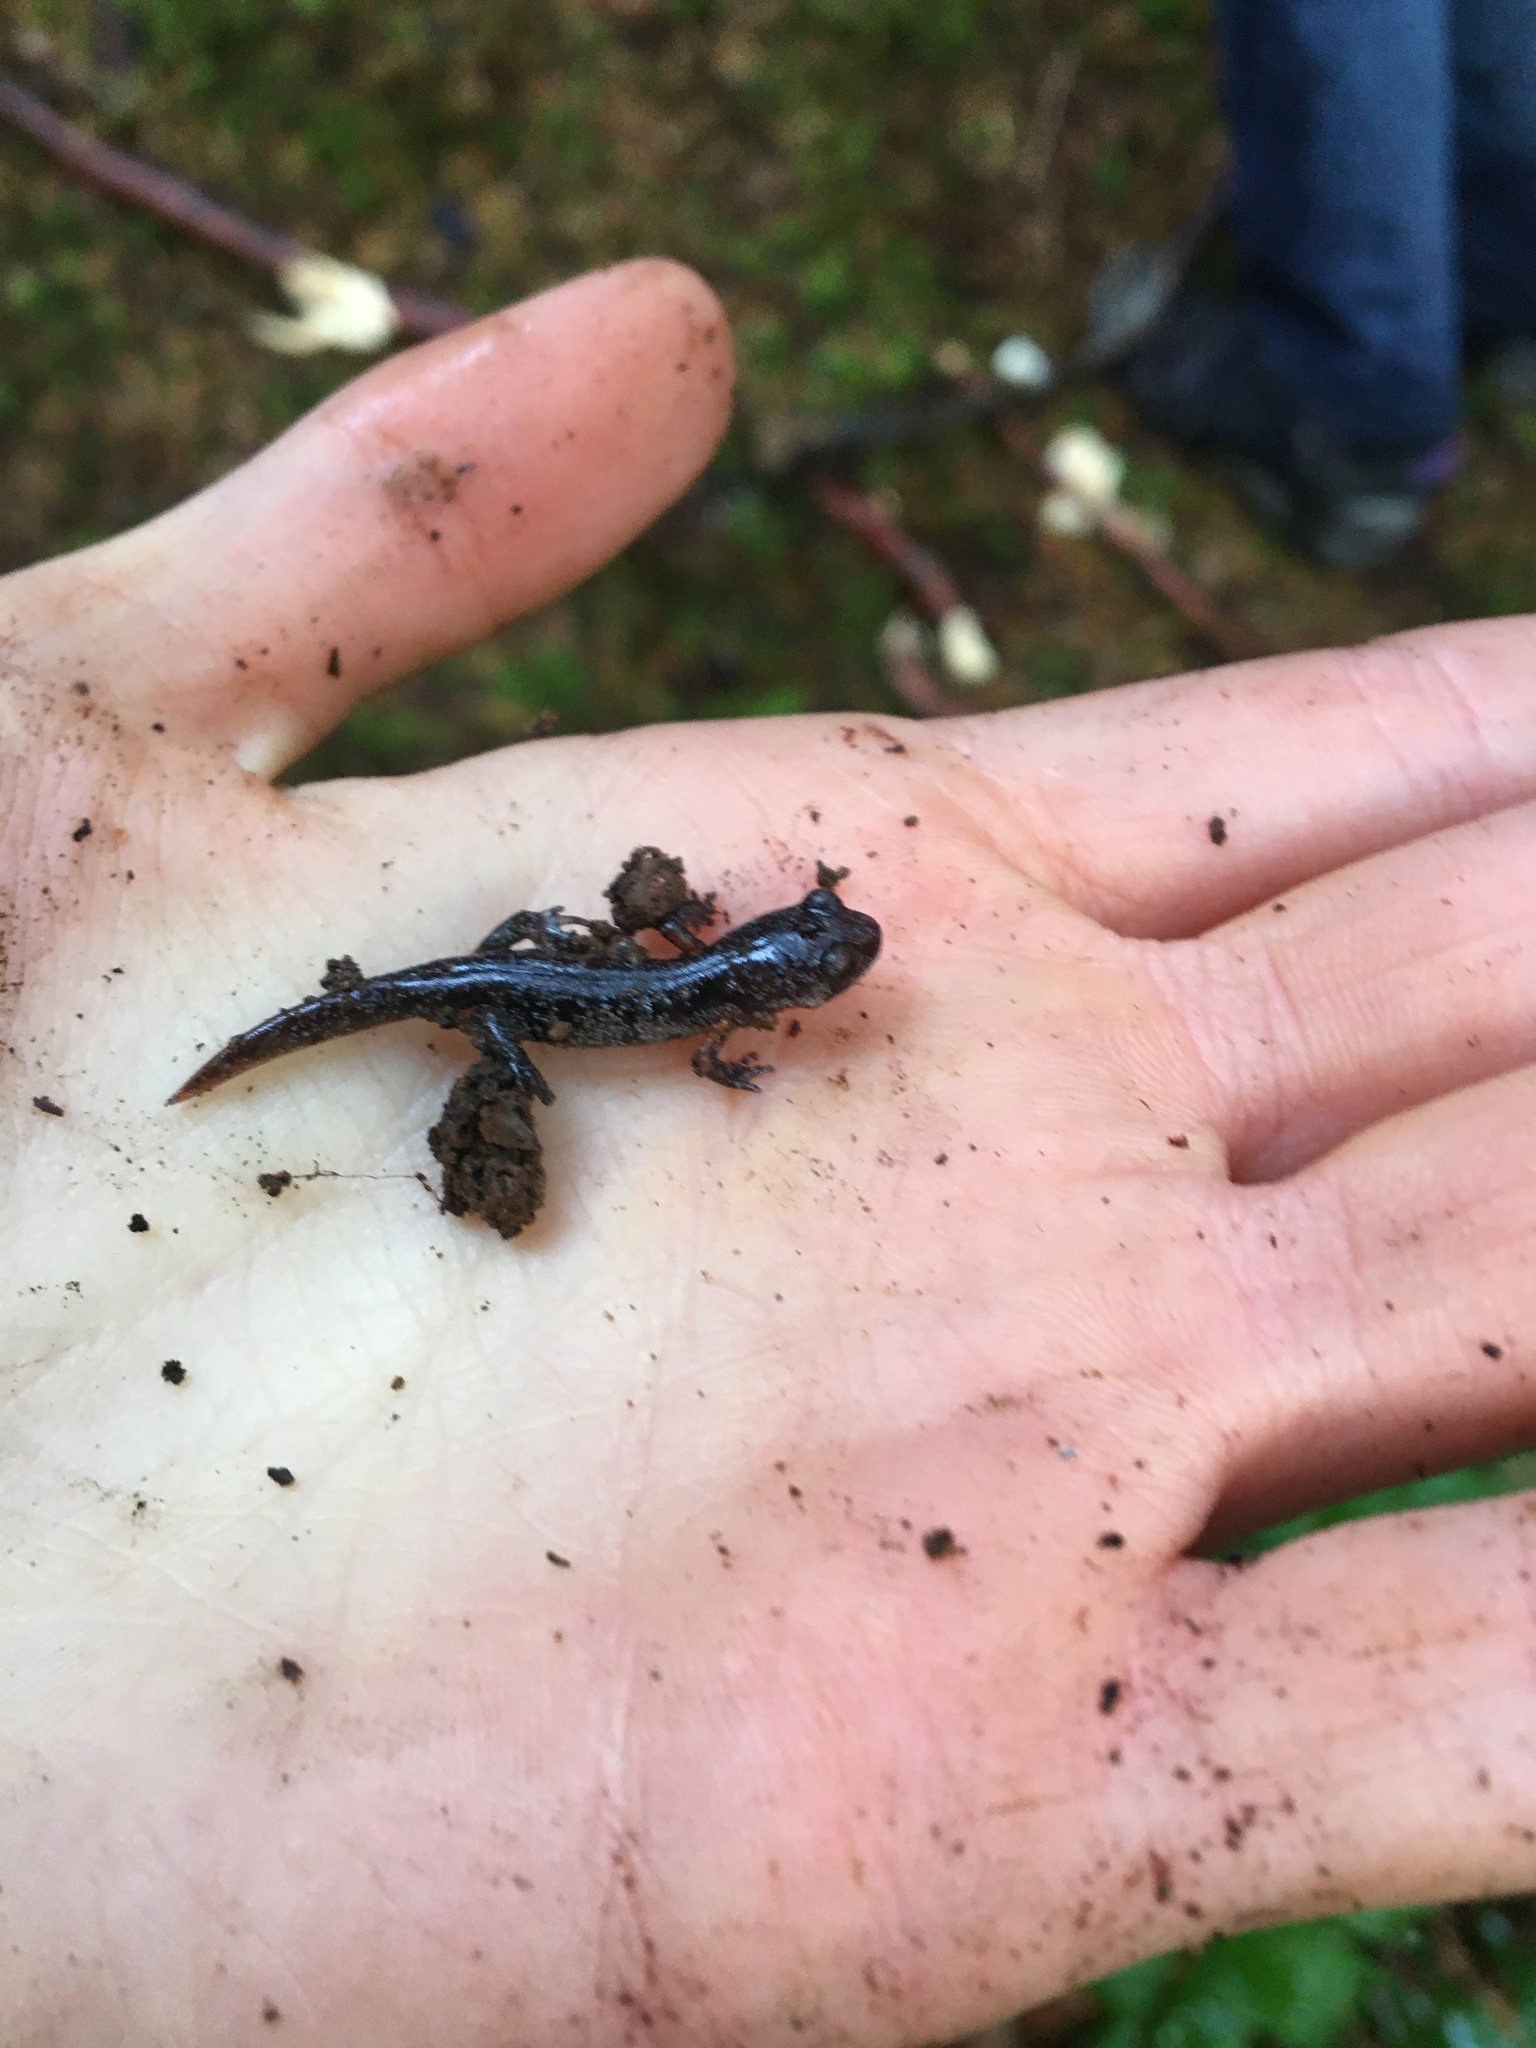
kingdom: Animalia
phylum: Chordata
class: Amphibia
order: Caudata
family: Plethodontidae
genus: Ensatina
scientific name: Ensatina eschscholtzii
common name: Ensatina
